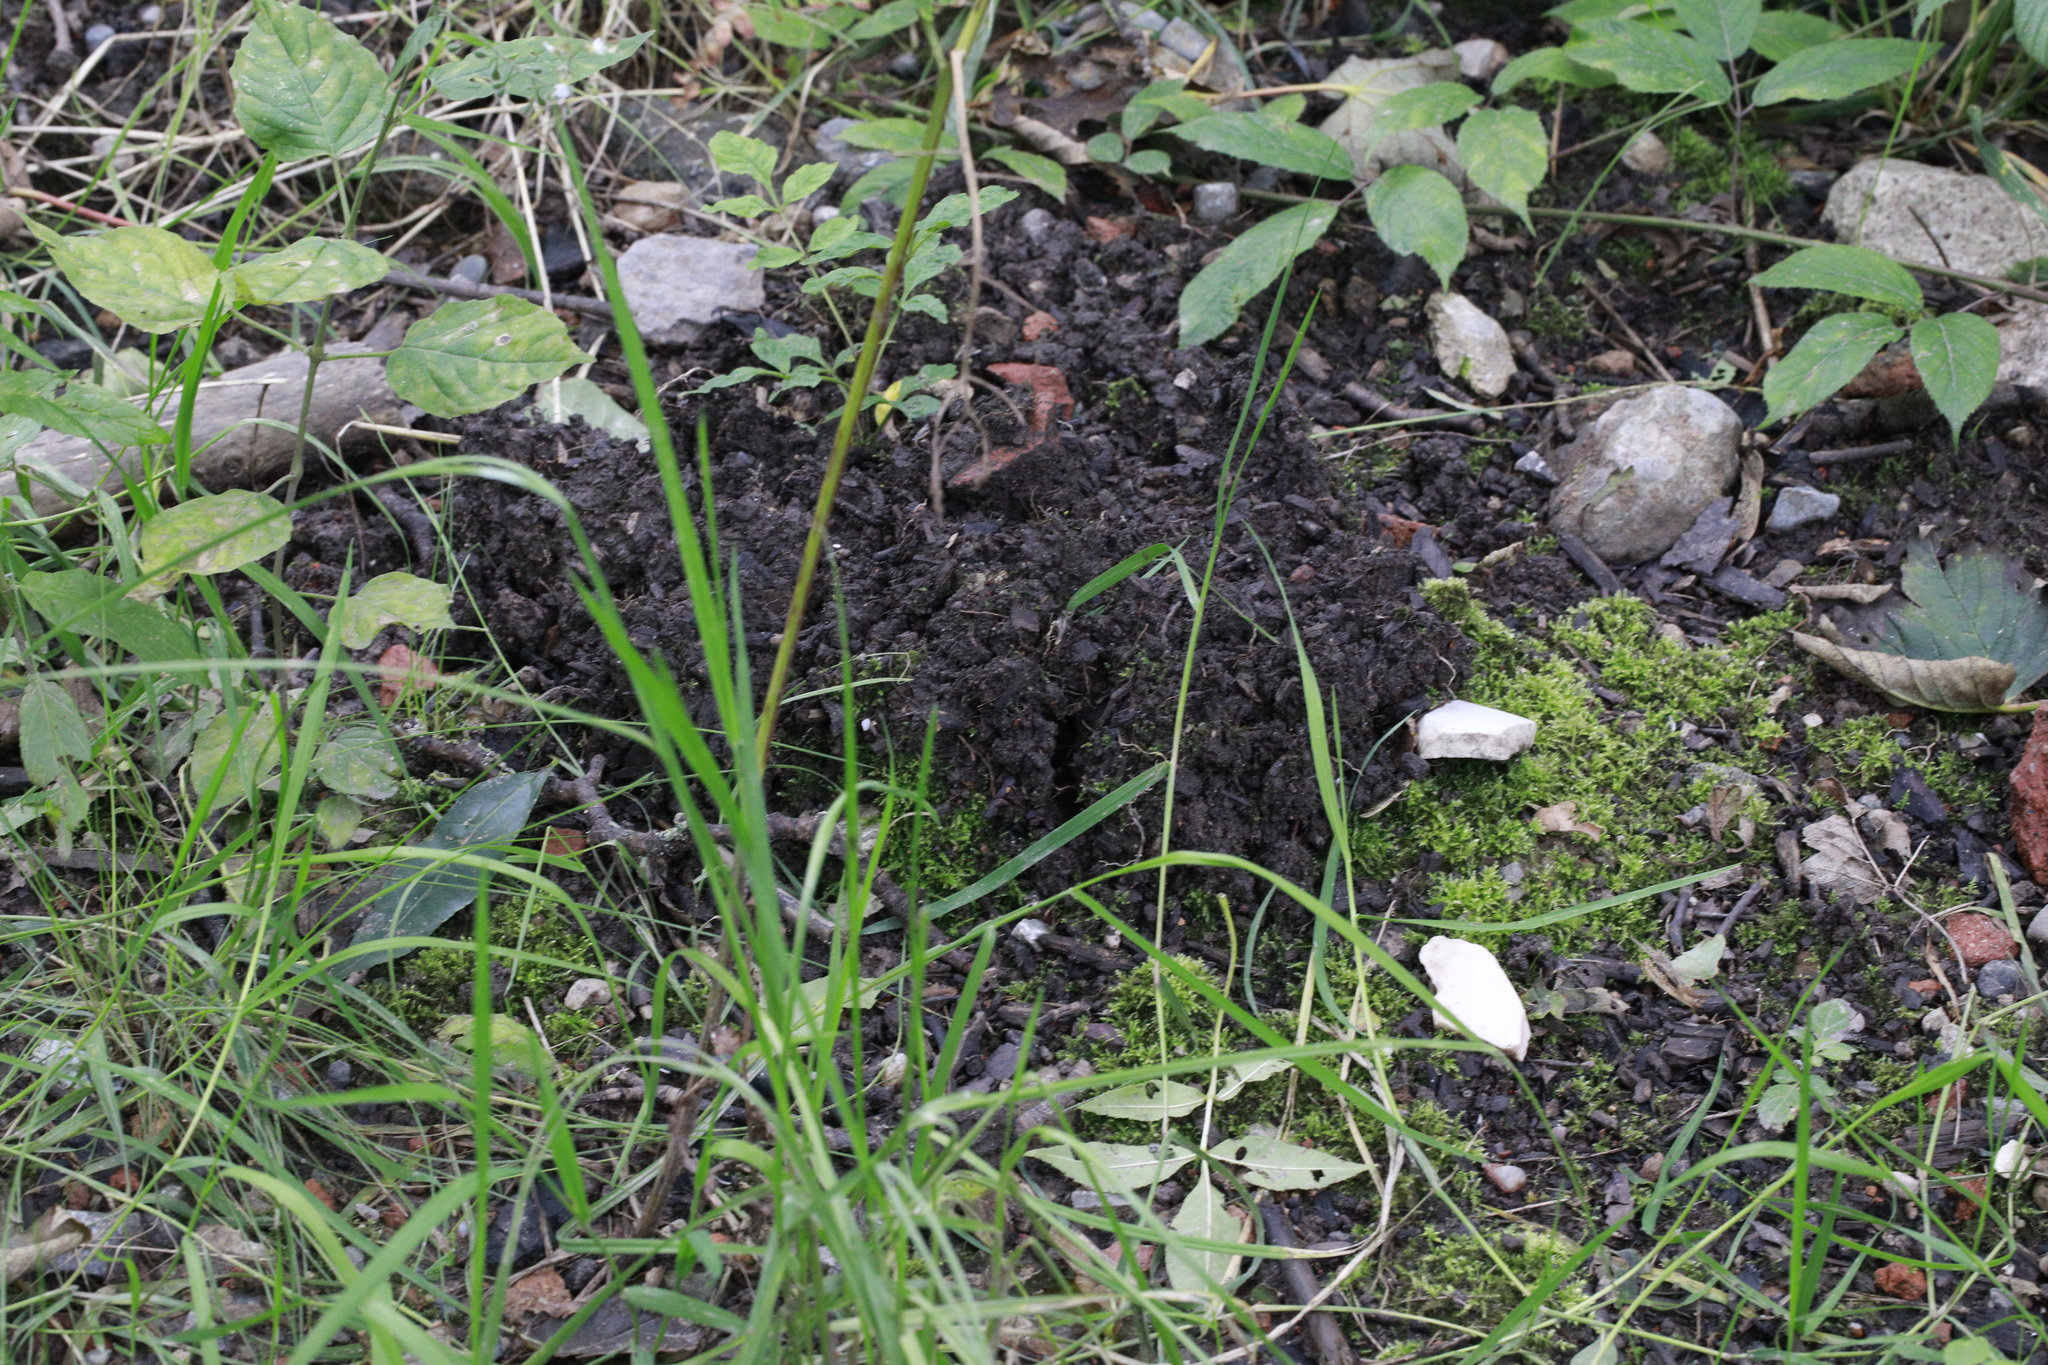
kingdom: Animalia
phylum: Chordata
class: Mammalia
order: Soricomorpha
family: Talpidae
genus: Talpa
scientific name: Talpa europaea
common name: European mole
